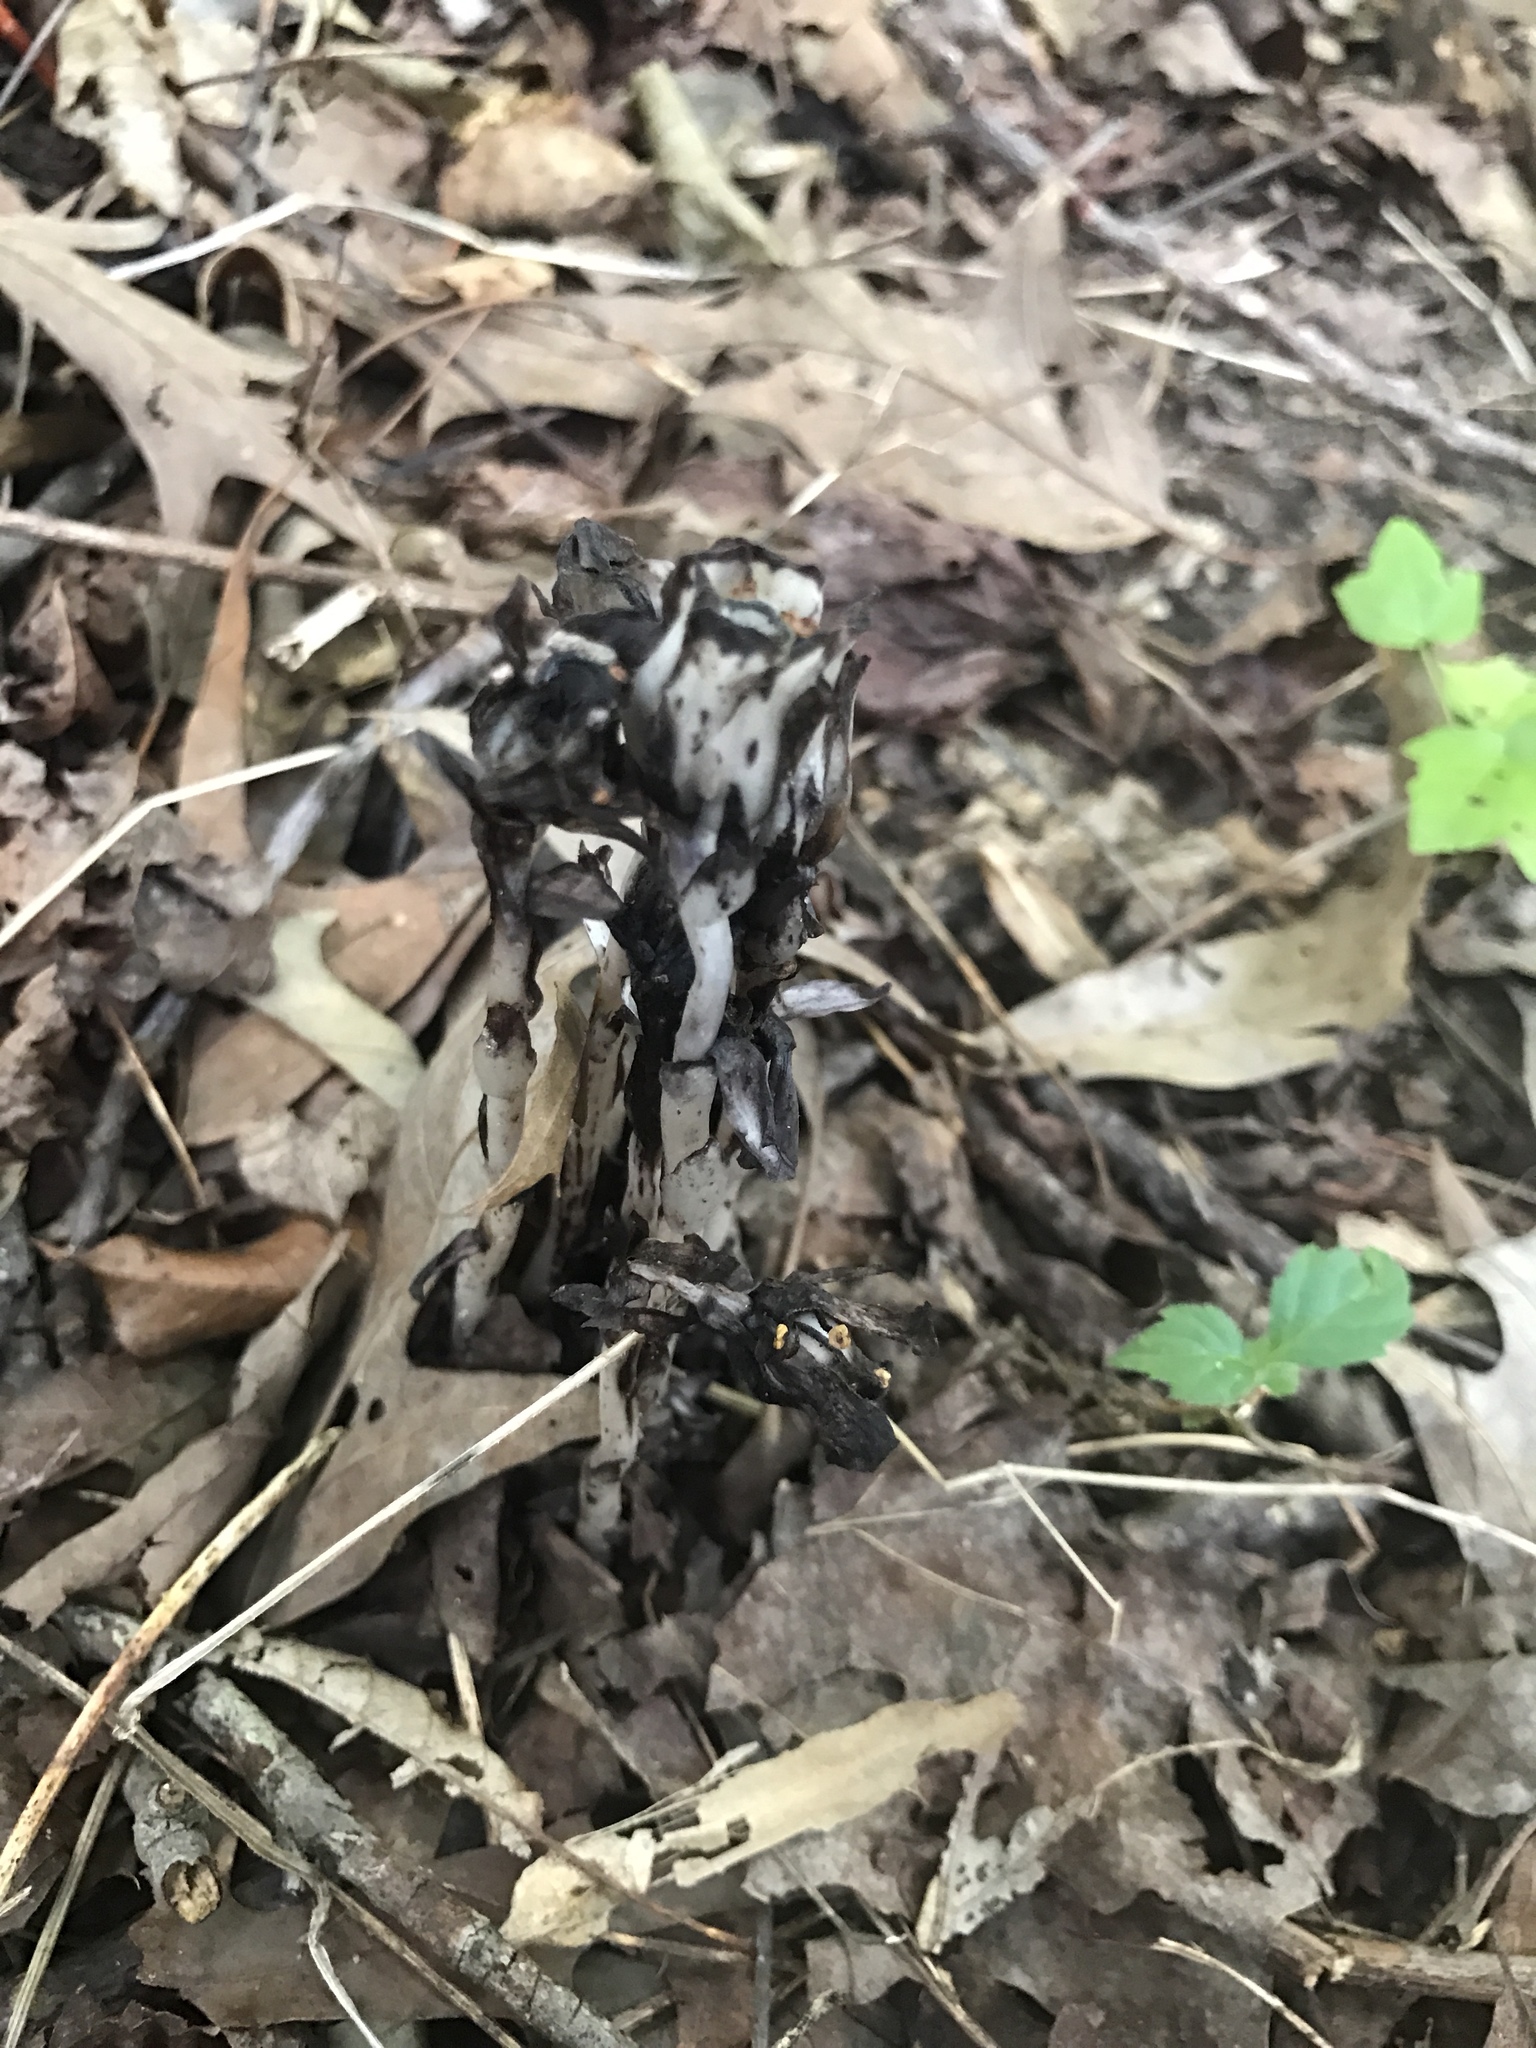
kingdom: Plantae
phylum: Tracheophyta
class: Magnoliopsida
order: Ericales
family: Ericaceae
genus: Monotropa
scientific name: Monotropa uniflora
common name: Convulsion root
